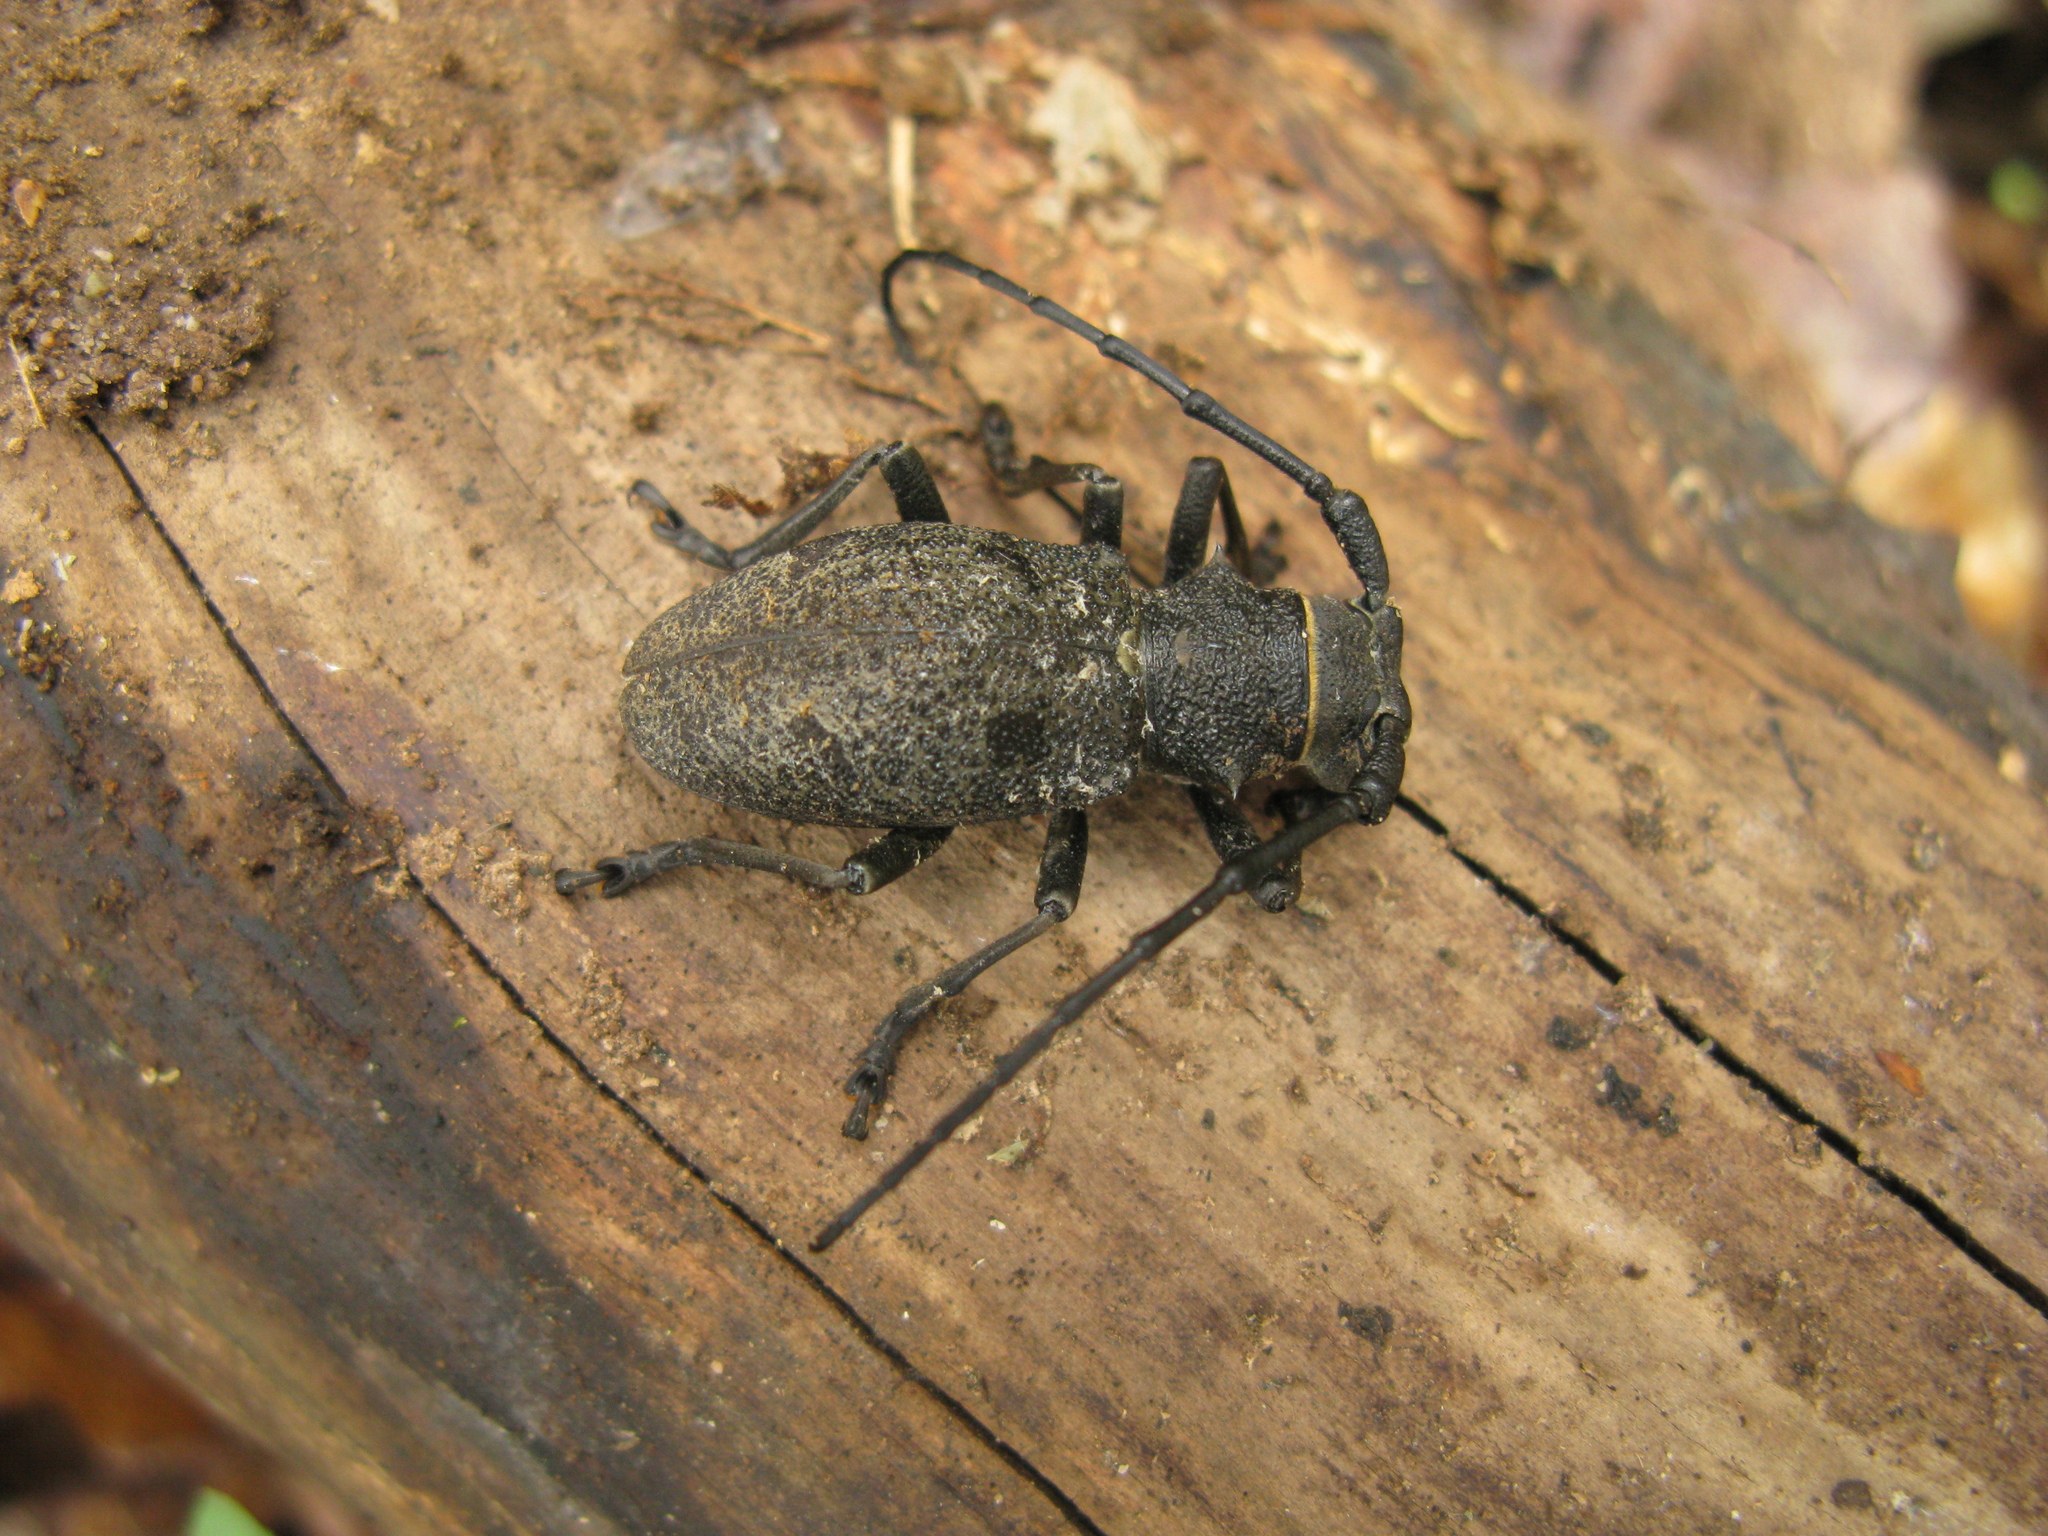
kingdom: Animalia
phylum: Arthropoda
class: Insecta
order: Coleoptera
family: Cerambycidae
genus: Morimus
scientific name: Morimus asper
